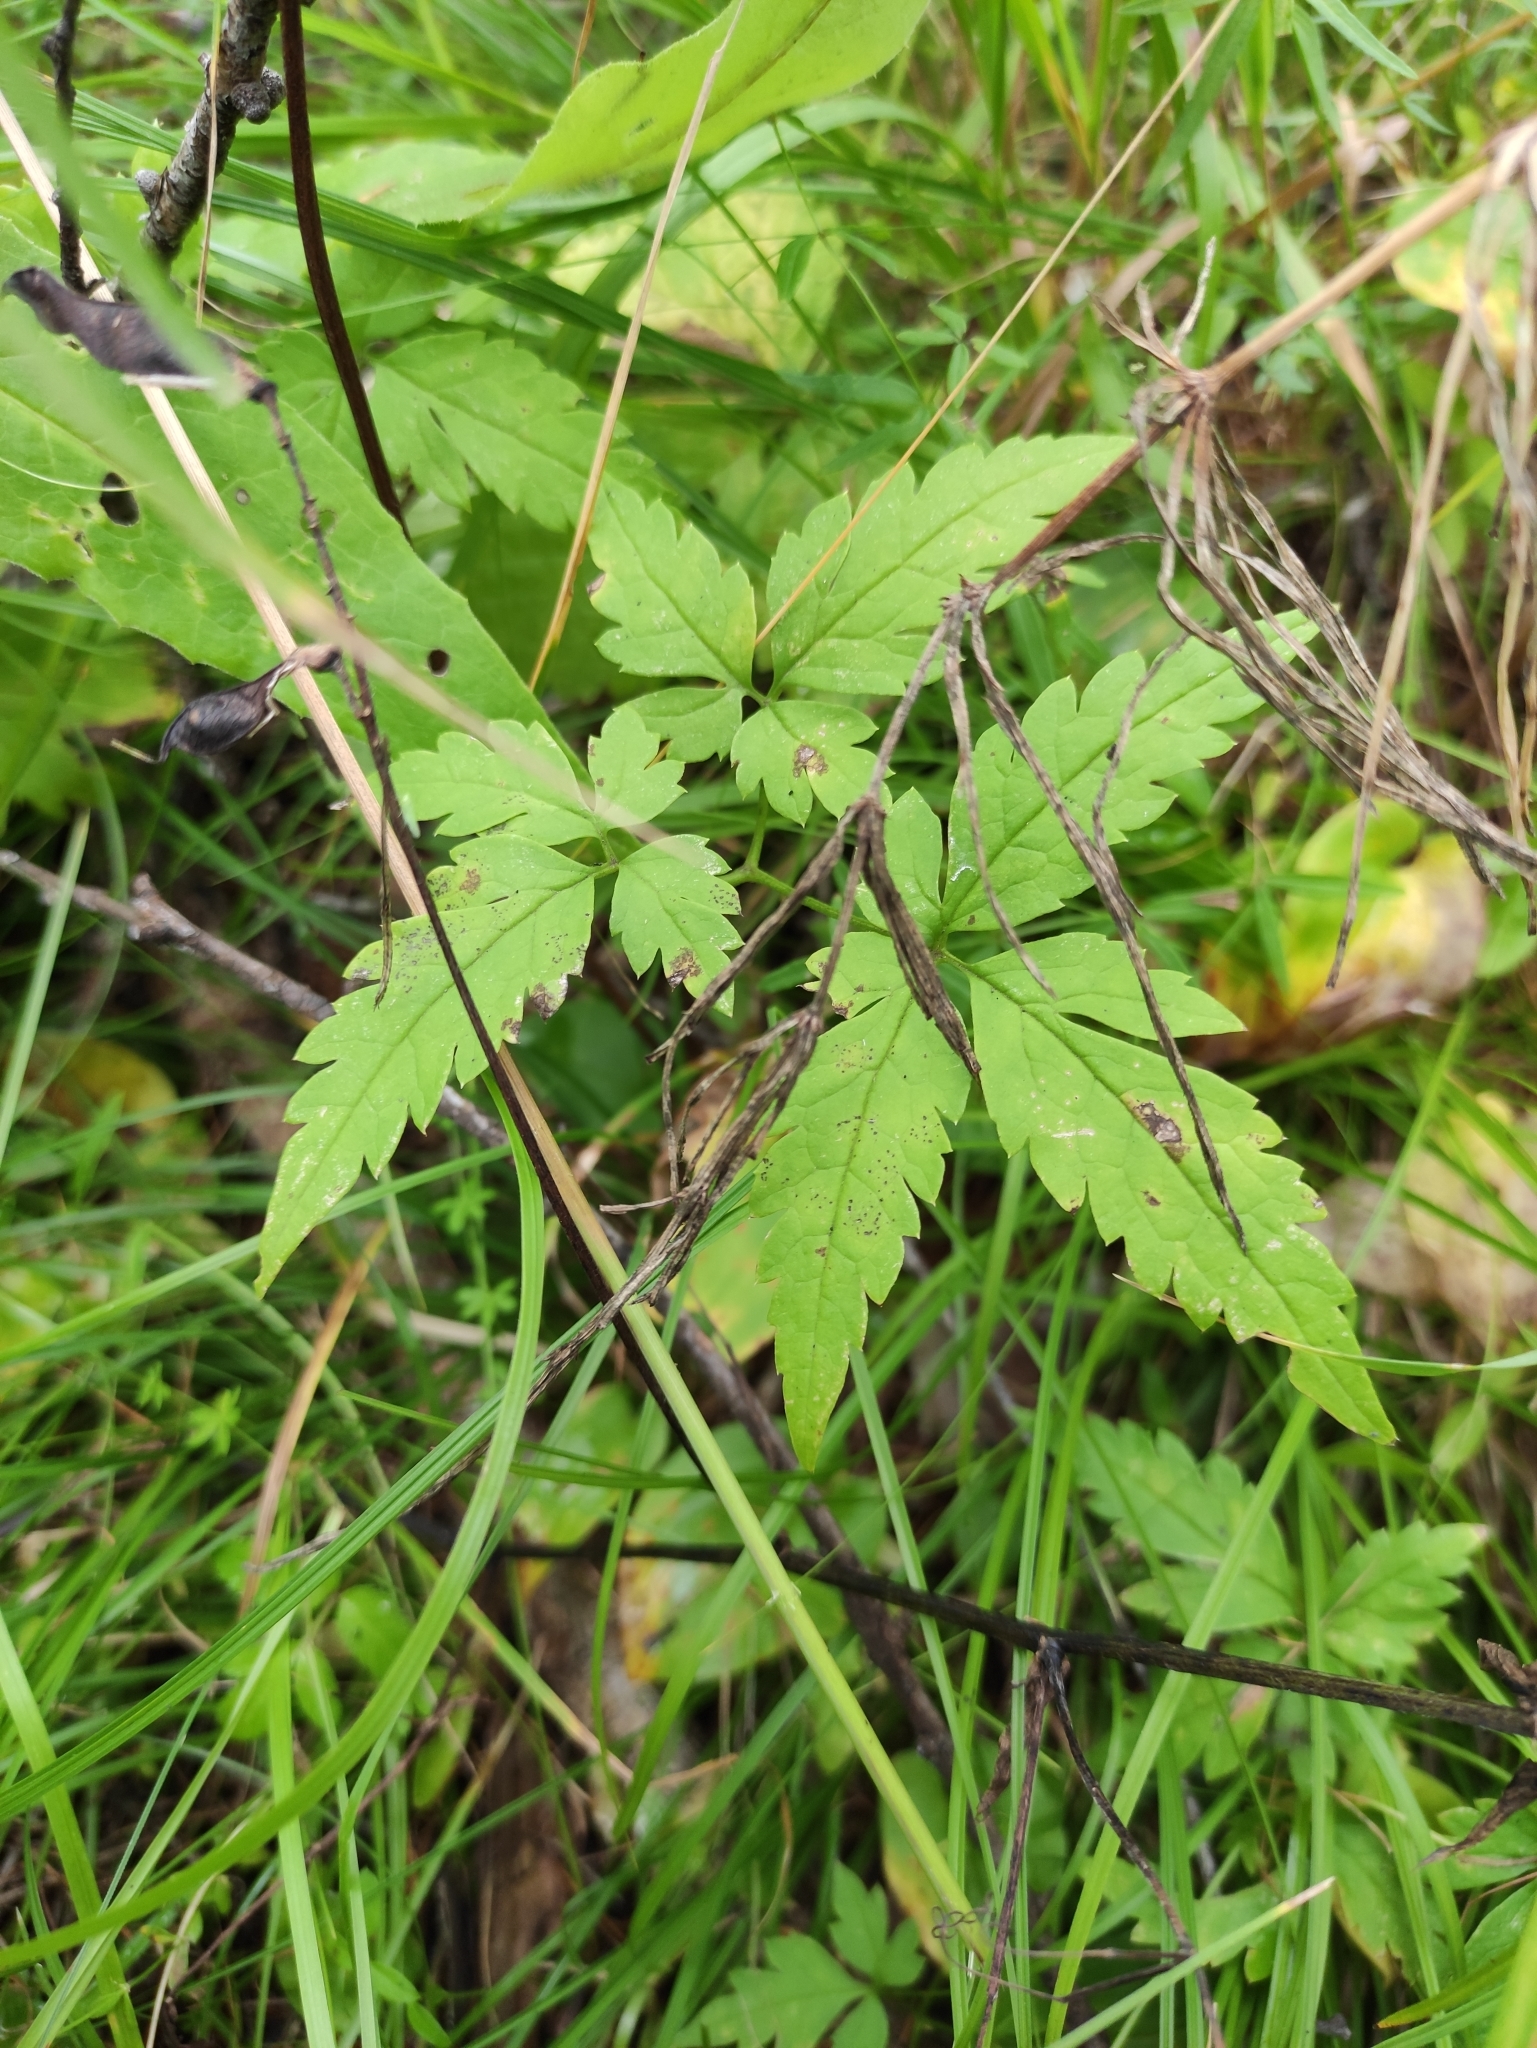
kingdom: Plantae
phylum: Tracheophyta
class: Magnoliopsida
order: Ranunculales
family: Ranunculaceae
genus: Clematis
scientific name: Clematis sibirica
